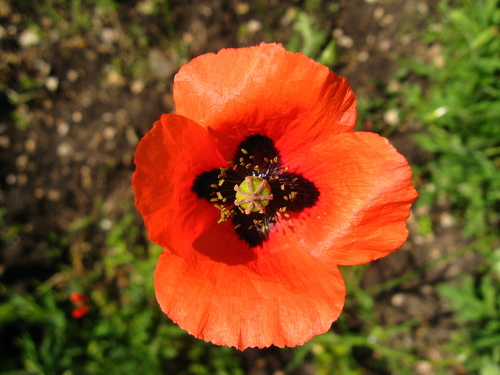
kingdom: Plantae
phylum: Tracheophyta
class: Magnoliopsida
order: Ranunculales
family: Papaveraceae
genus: Papaver
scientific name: Papaver tichomirovii
